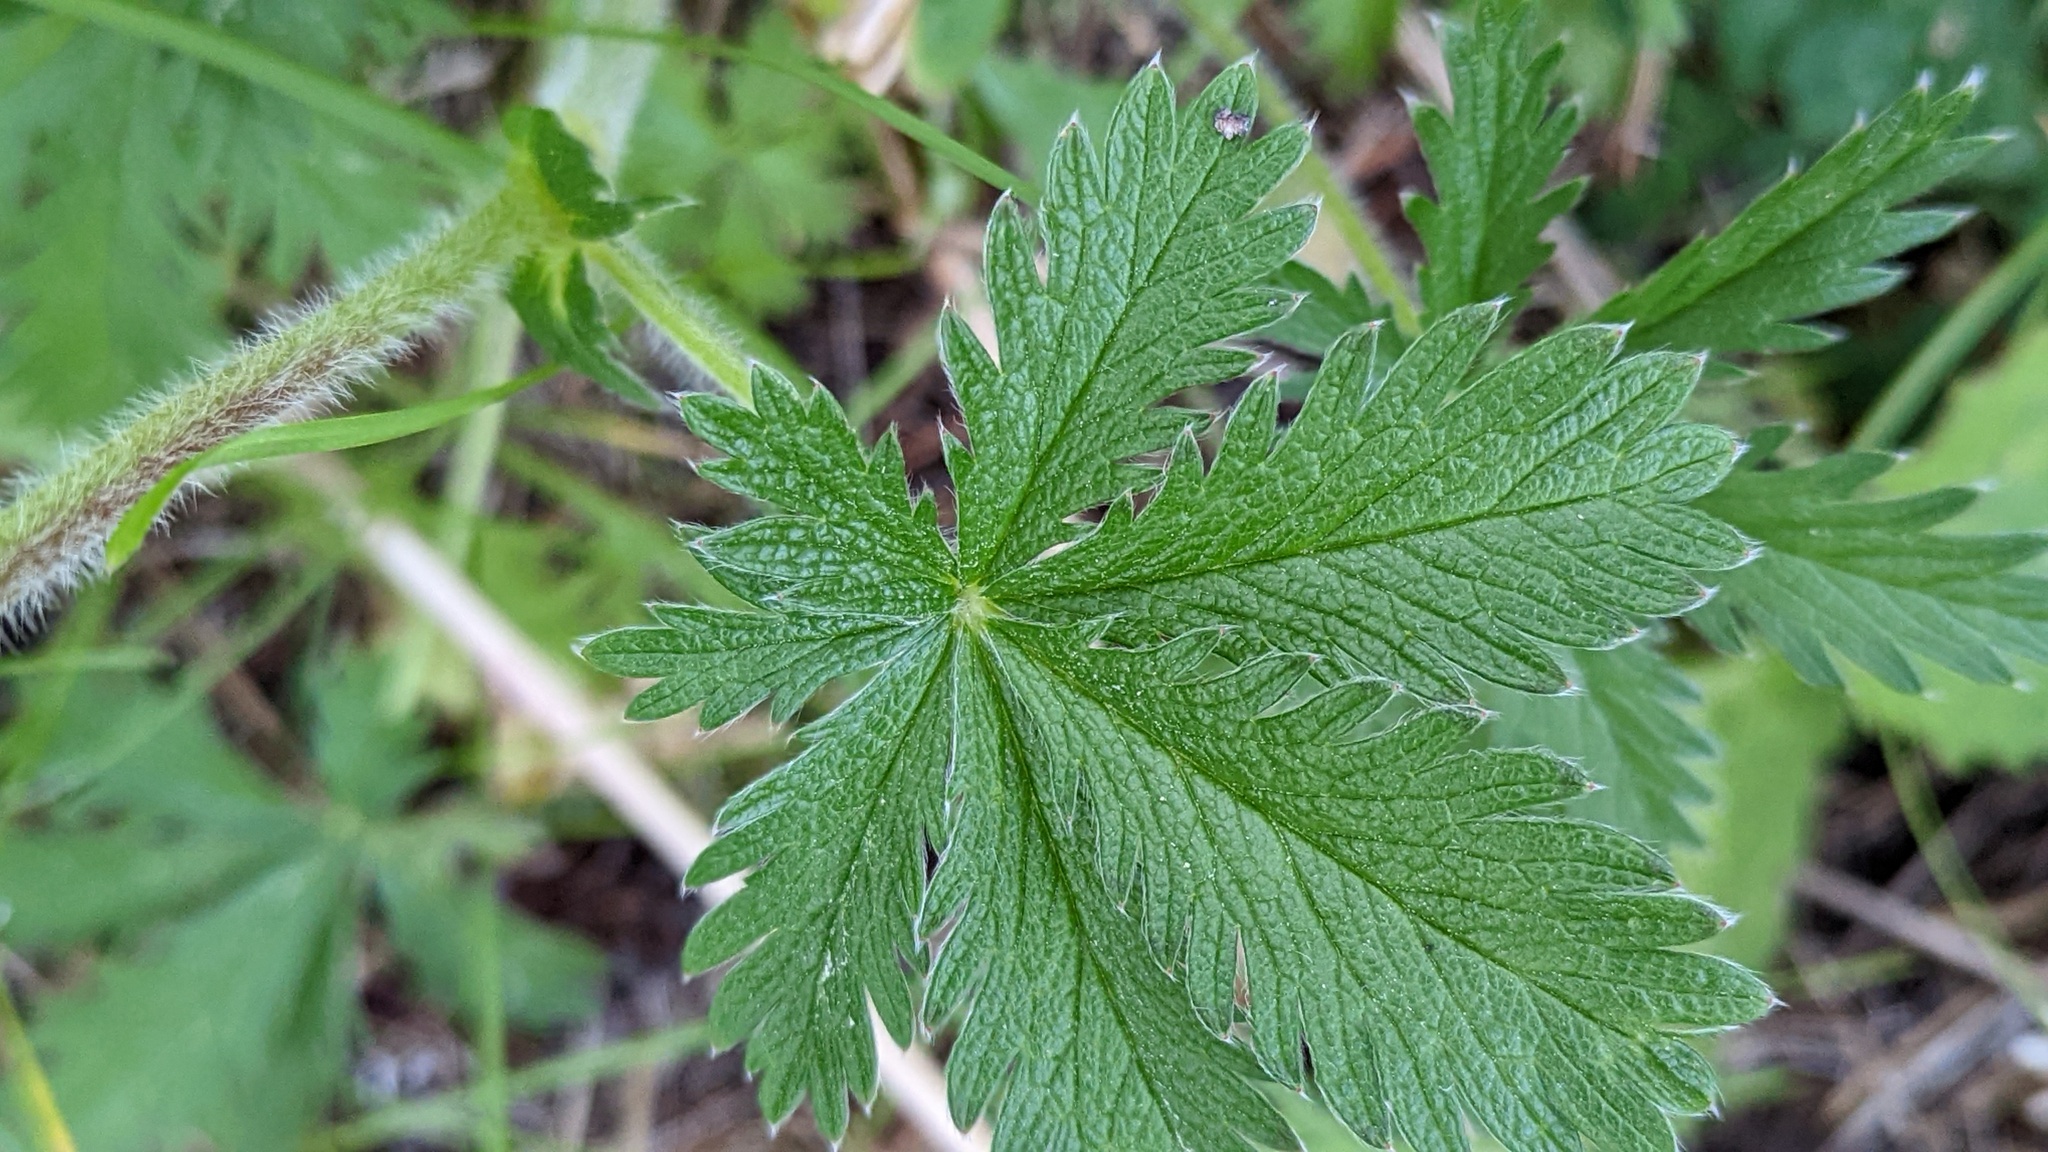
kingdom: Plantae
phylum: Tracheophyta
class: Magnoliopsida
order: Rosales
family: Rosaceae
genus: Potentilla
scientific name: Potentilla gracilis
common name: Graceful cinquefoil
